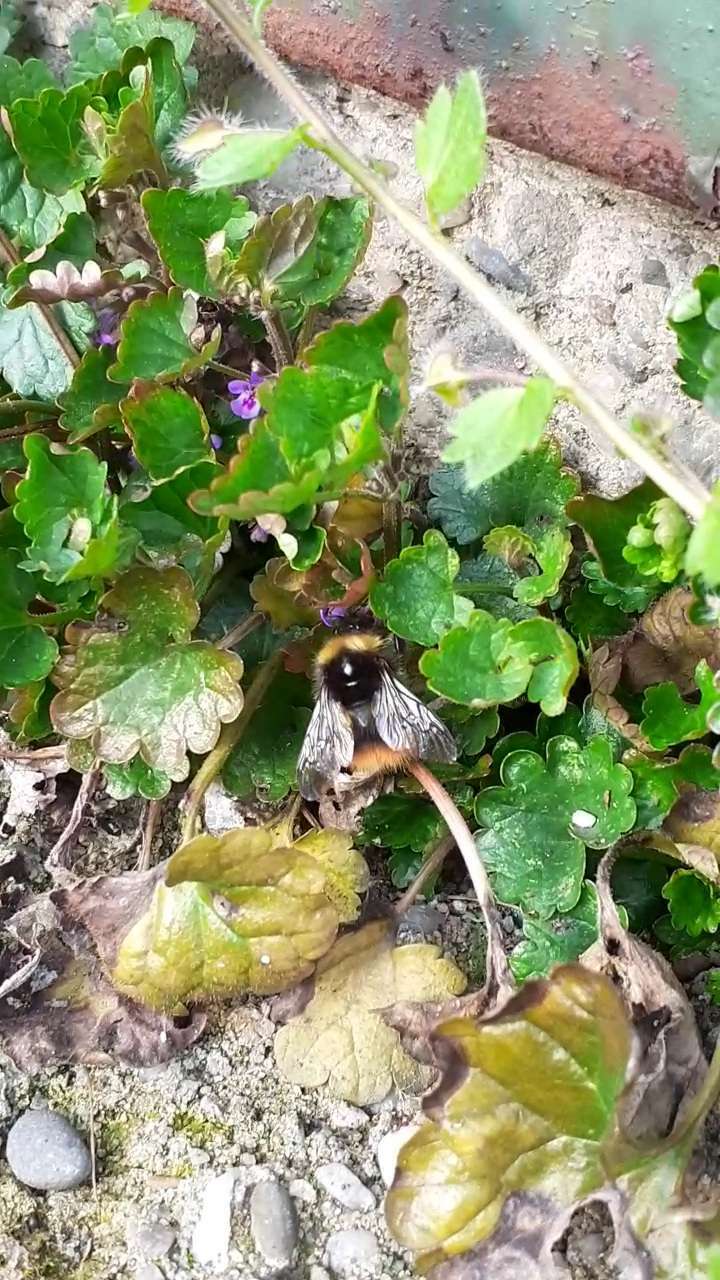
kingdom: Animalia
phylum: Arthropoda
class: Insecta
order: Hymenoptera
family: Apidae
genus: Bombus
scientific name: Bombus pratorum
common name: Early humble-bee
